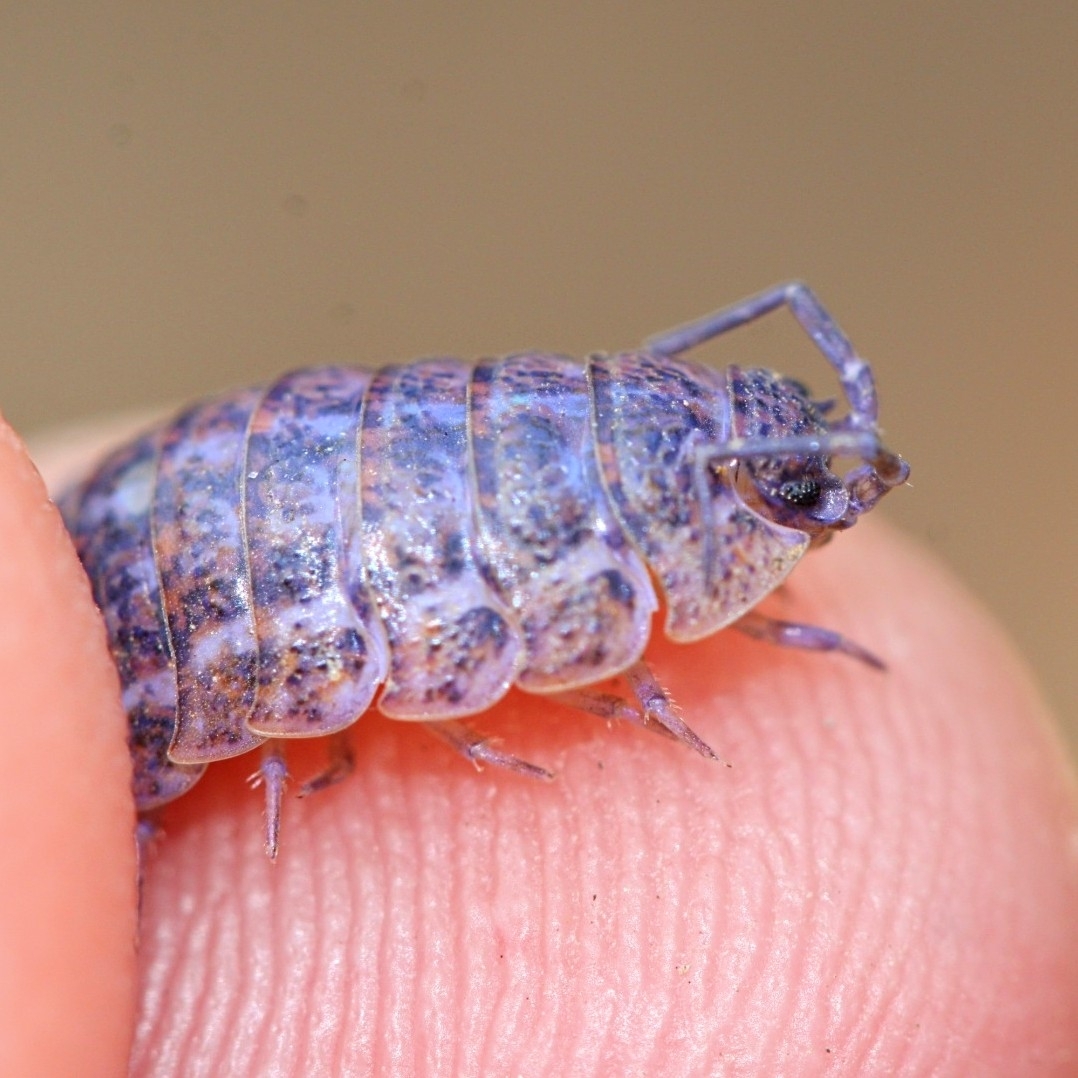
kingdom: Viruses
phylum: Nucleocytoviricota
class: Megaviricetes
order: Pimascovirales
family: Iridoviridae
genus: Iridovirus
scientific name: Iridovirus Invertebrate iridescent virus 31
